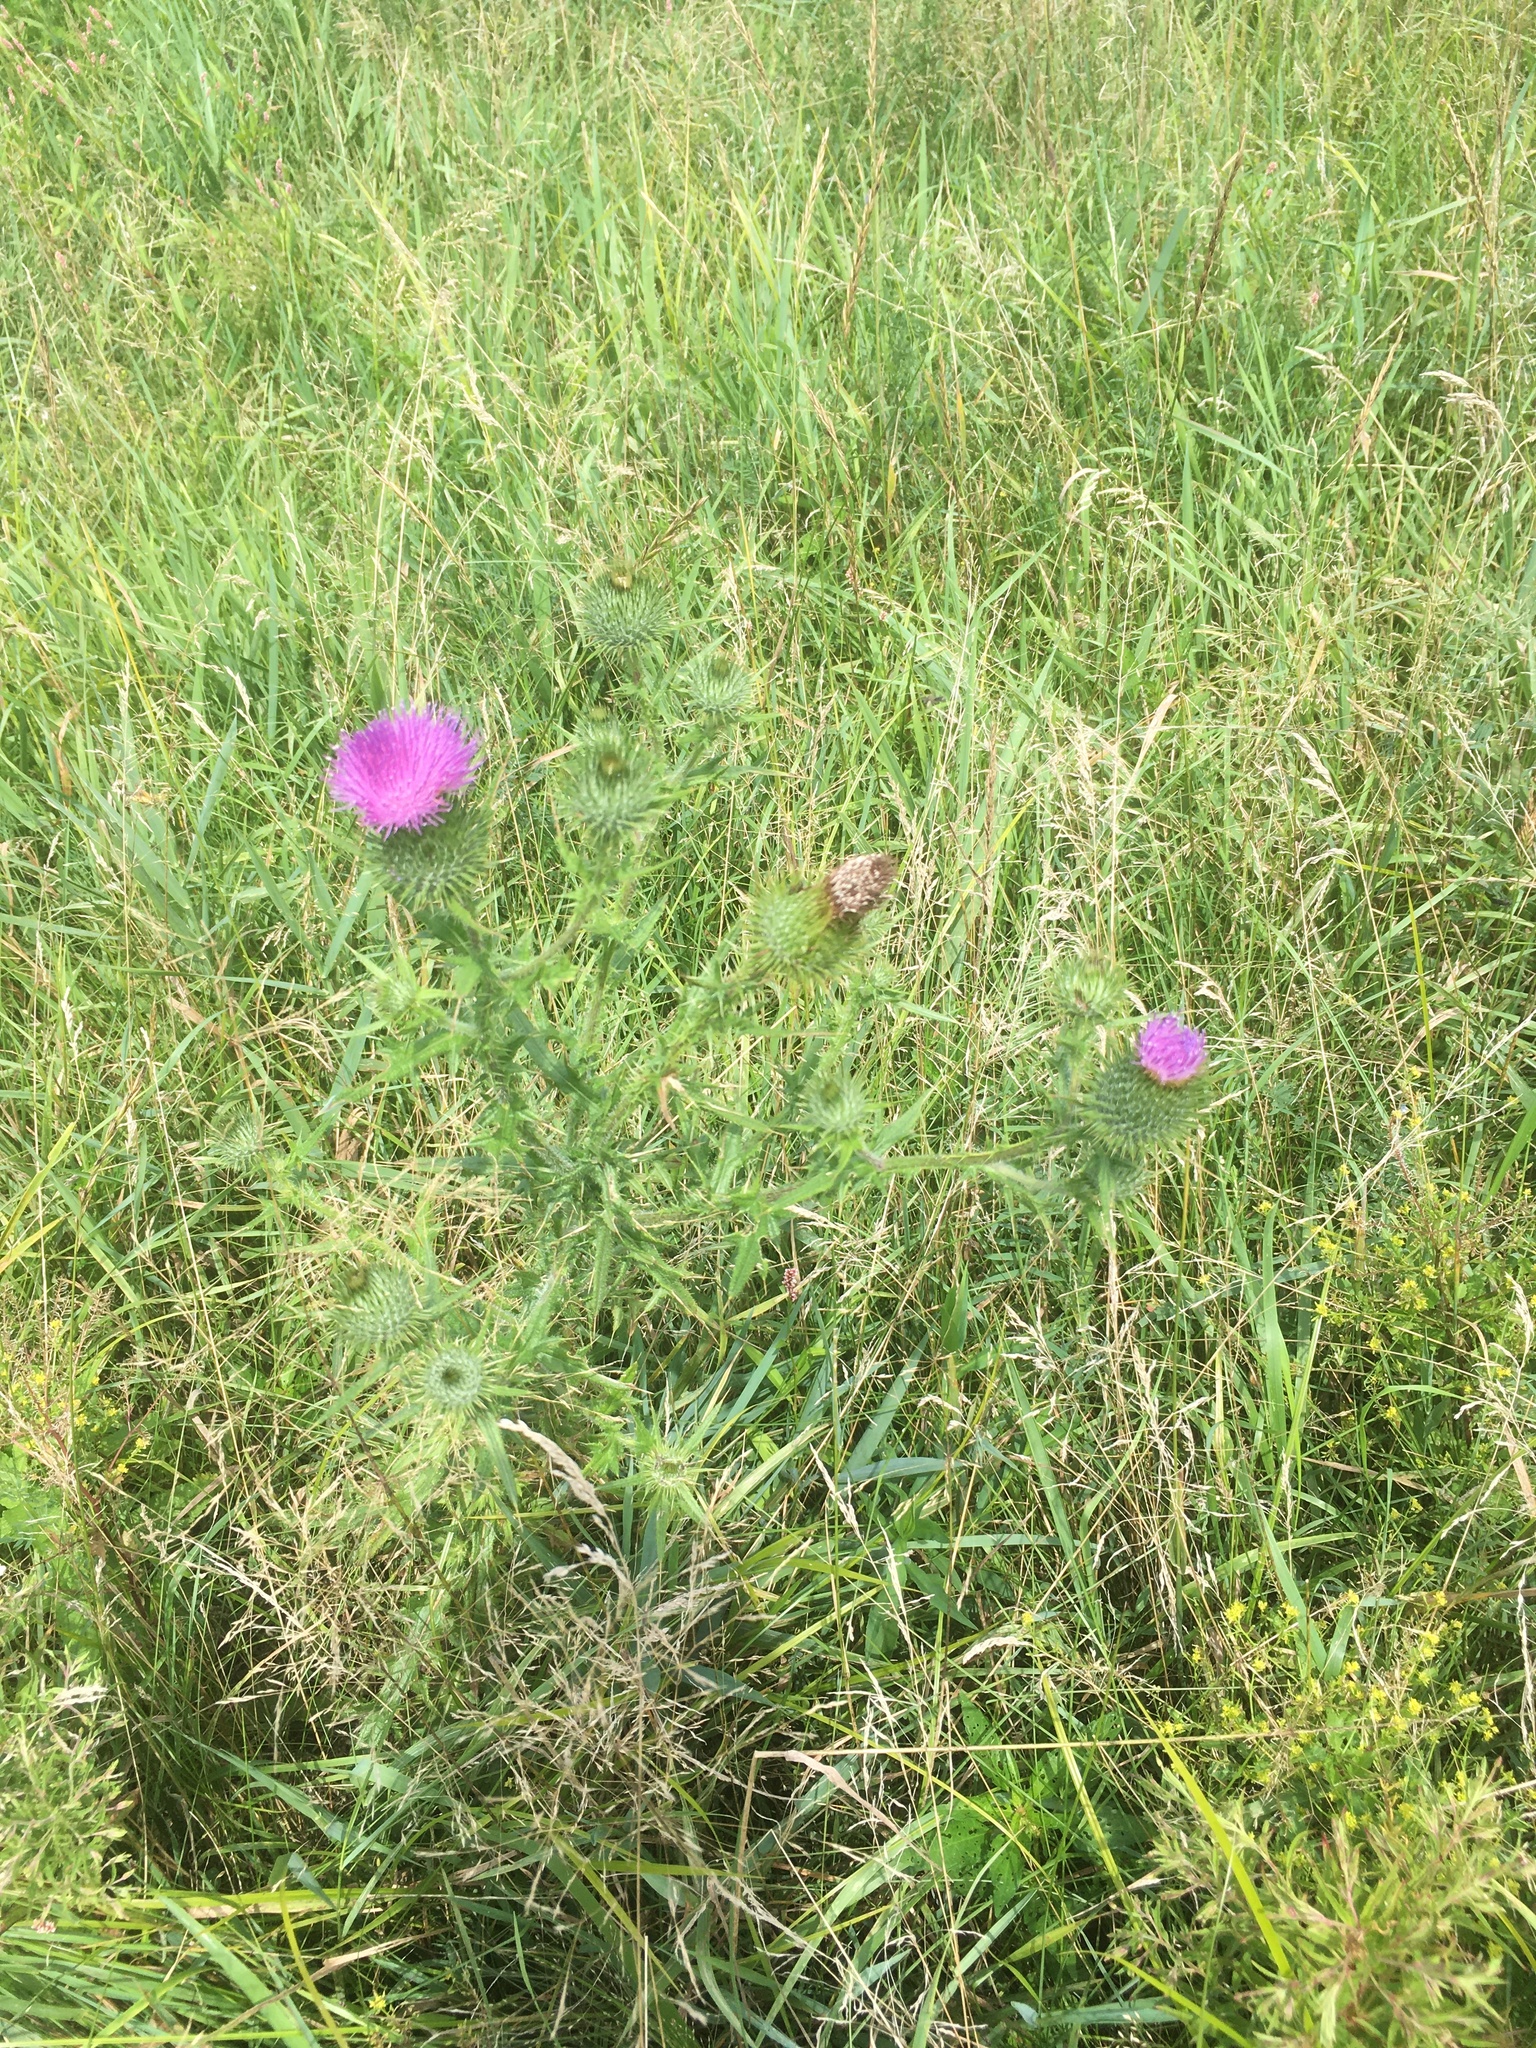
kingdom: Plantae
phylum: Tracheophyta
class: Magnoliopsida
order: Asterales
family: Asteraceae
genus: Cirsium
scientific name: Cirsium vulgare
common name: Bull thistle
